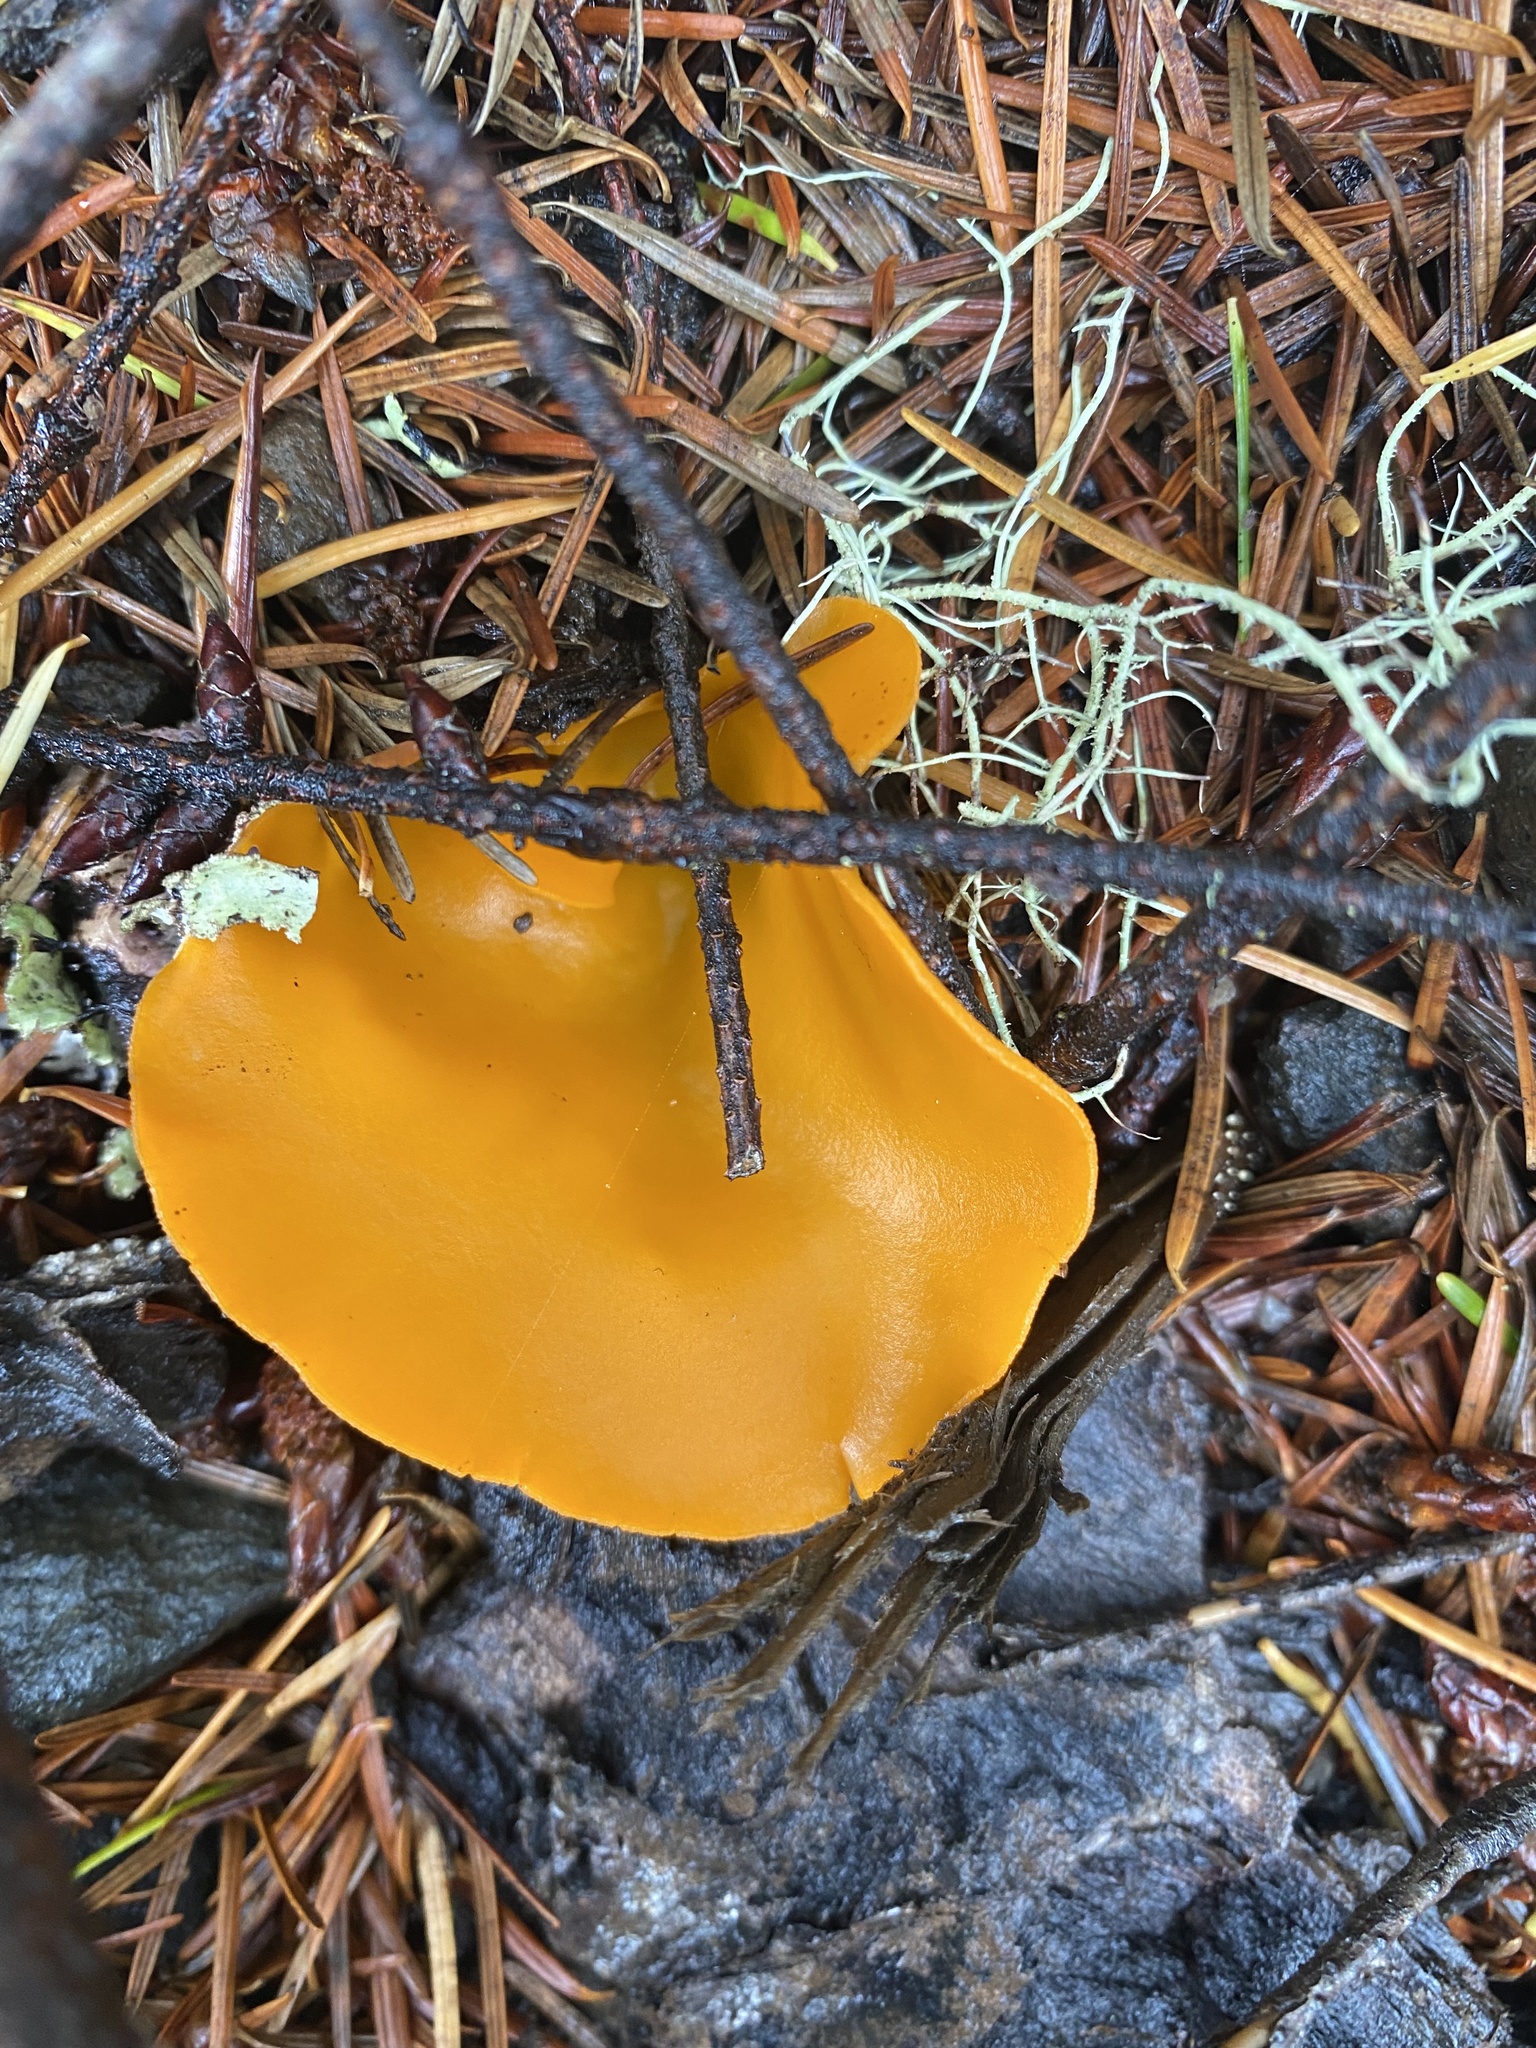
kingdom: Fungi
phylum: Ascomycota
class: Pezizomycetes
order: Pezizales
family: Pyronemataceae
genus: Aleuria
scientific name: Aleuria aurantia
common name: Orange peel fungus
